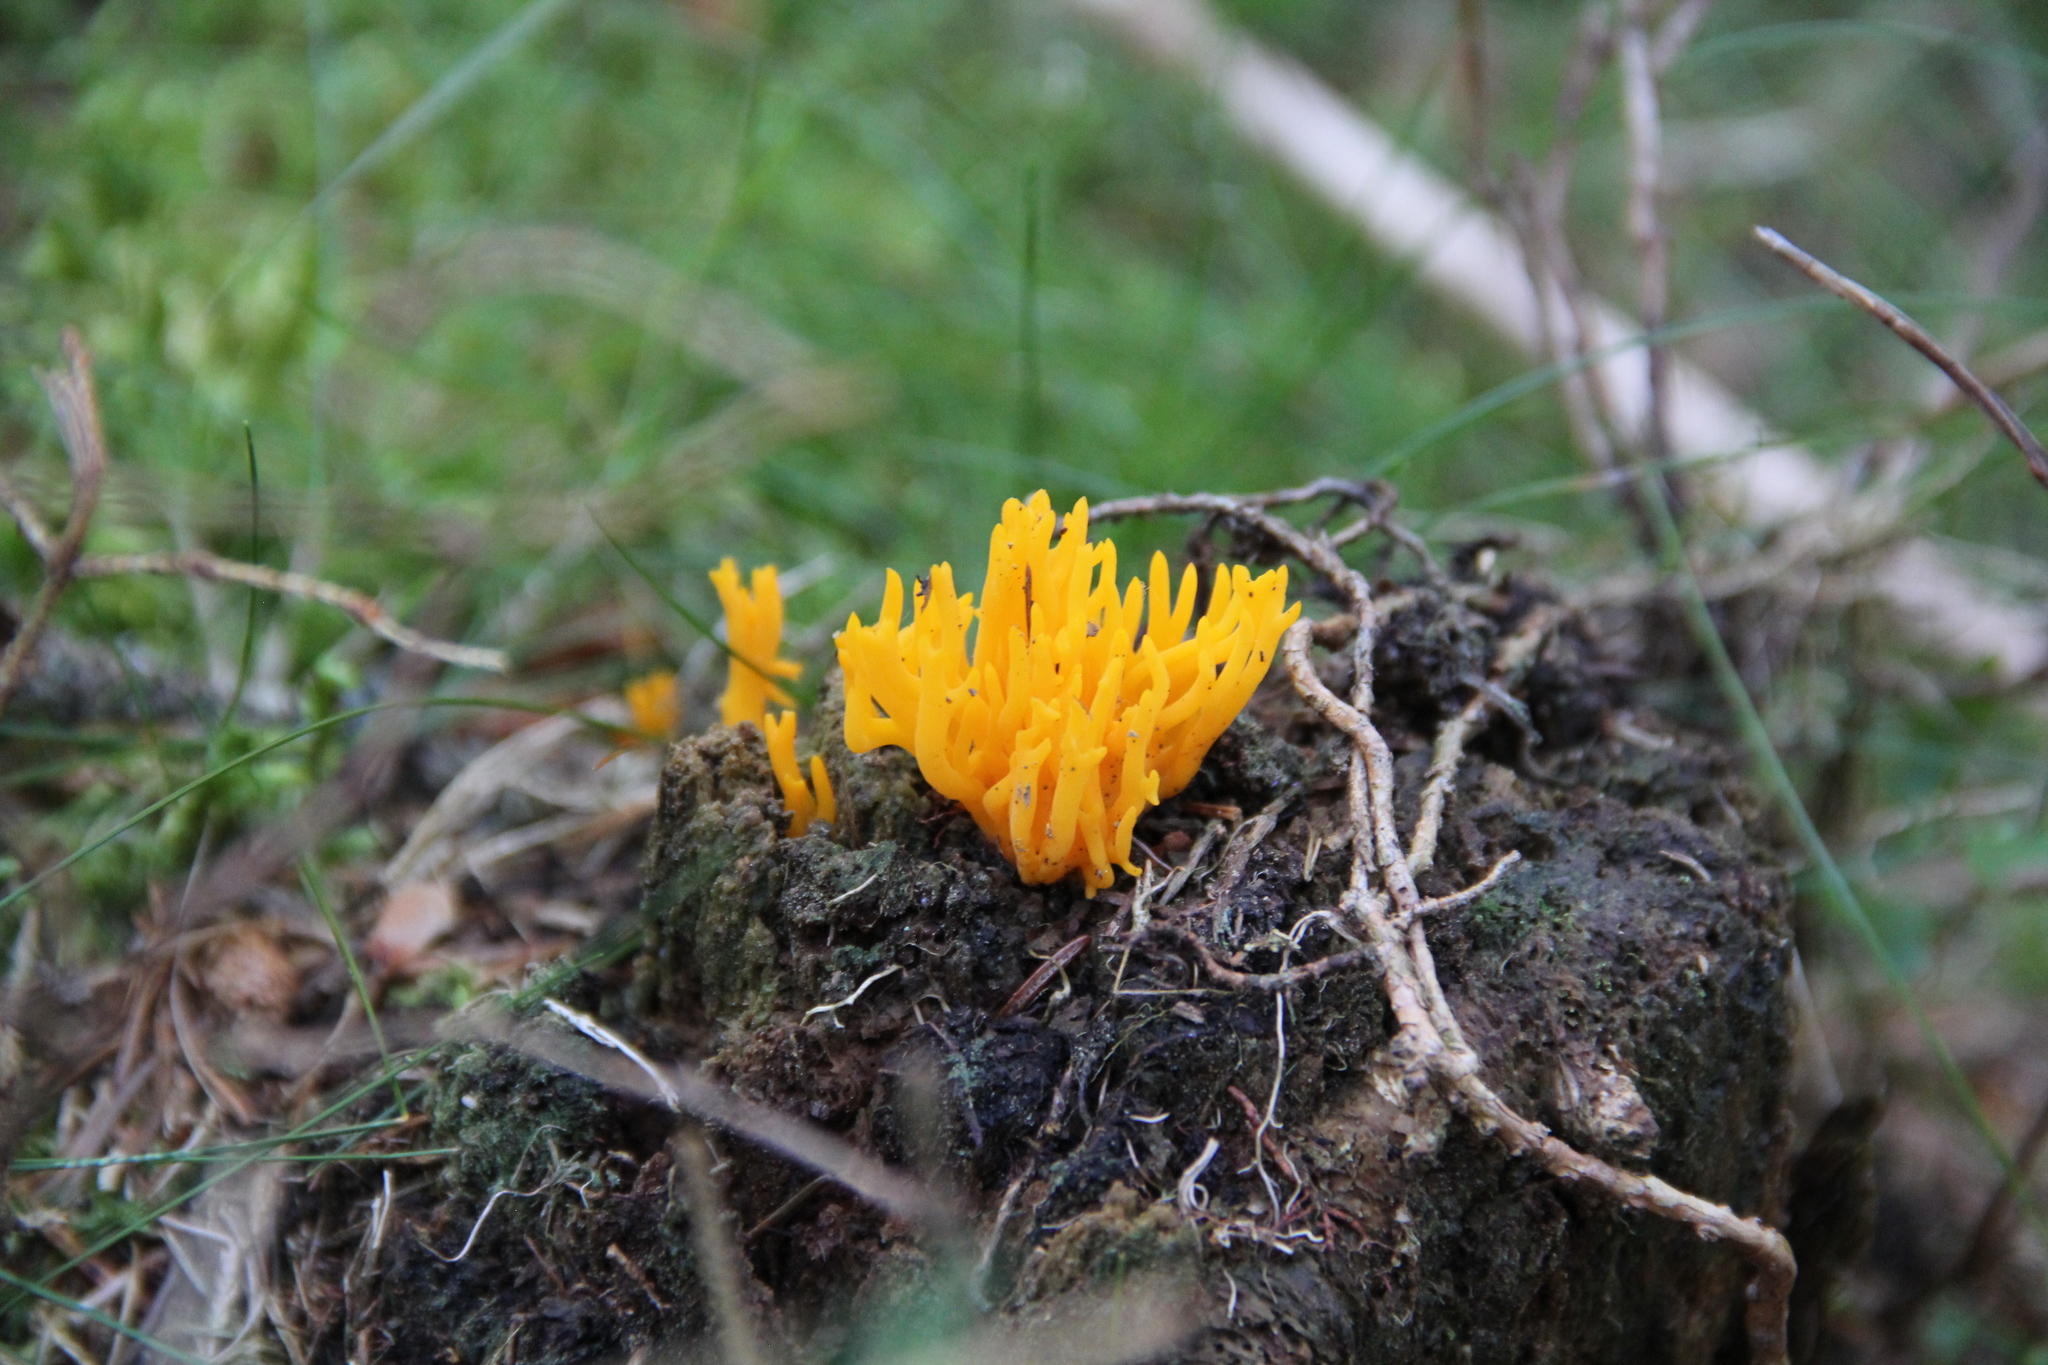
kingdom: Fungi
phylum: Basidiomycota
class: Dacrymycetes
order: Dacrymycetales
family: Dacrymycetaceae
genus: Calocera
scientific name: Calocera viscosa
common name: Yellow stagshorn
